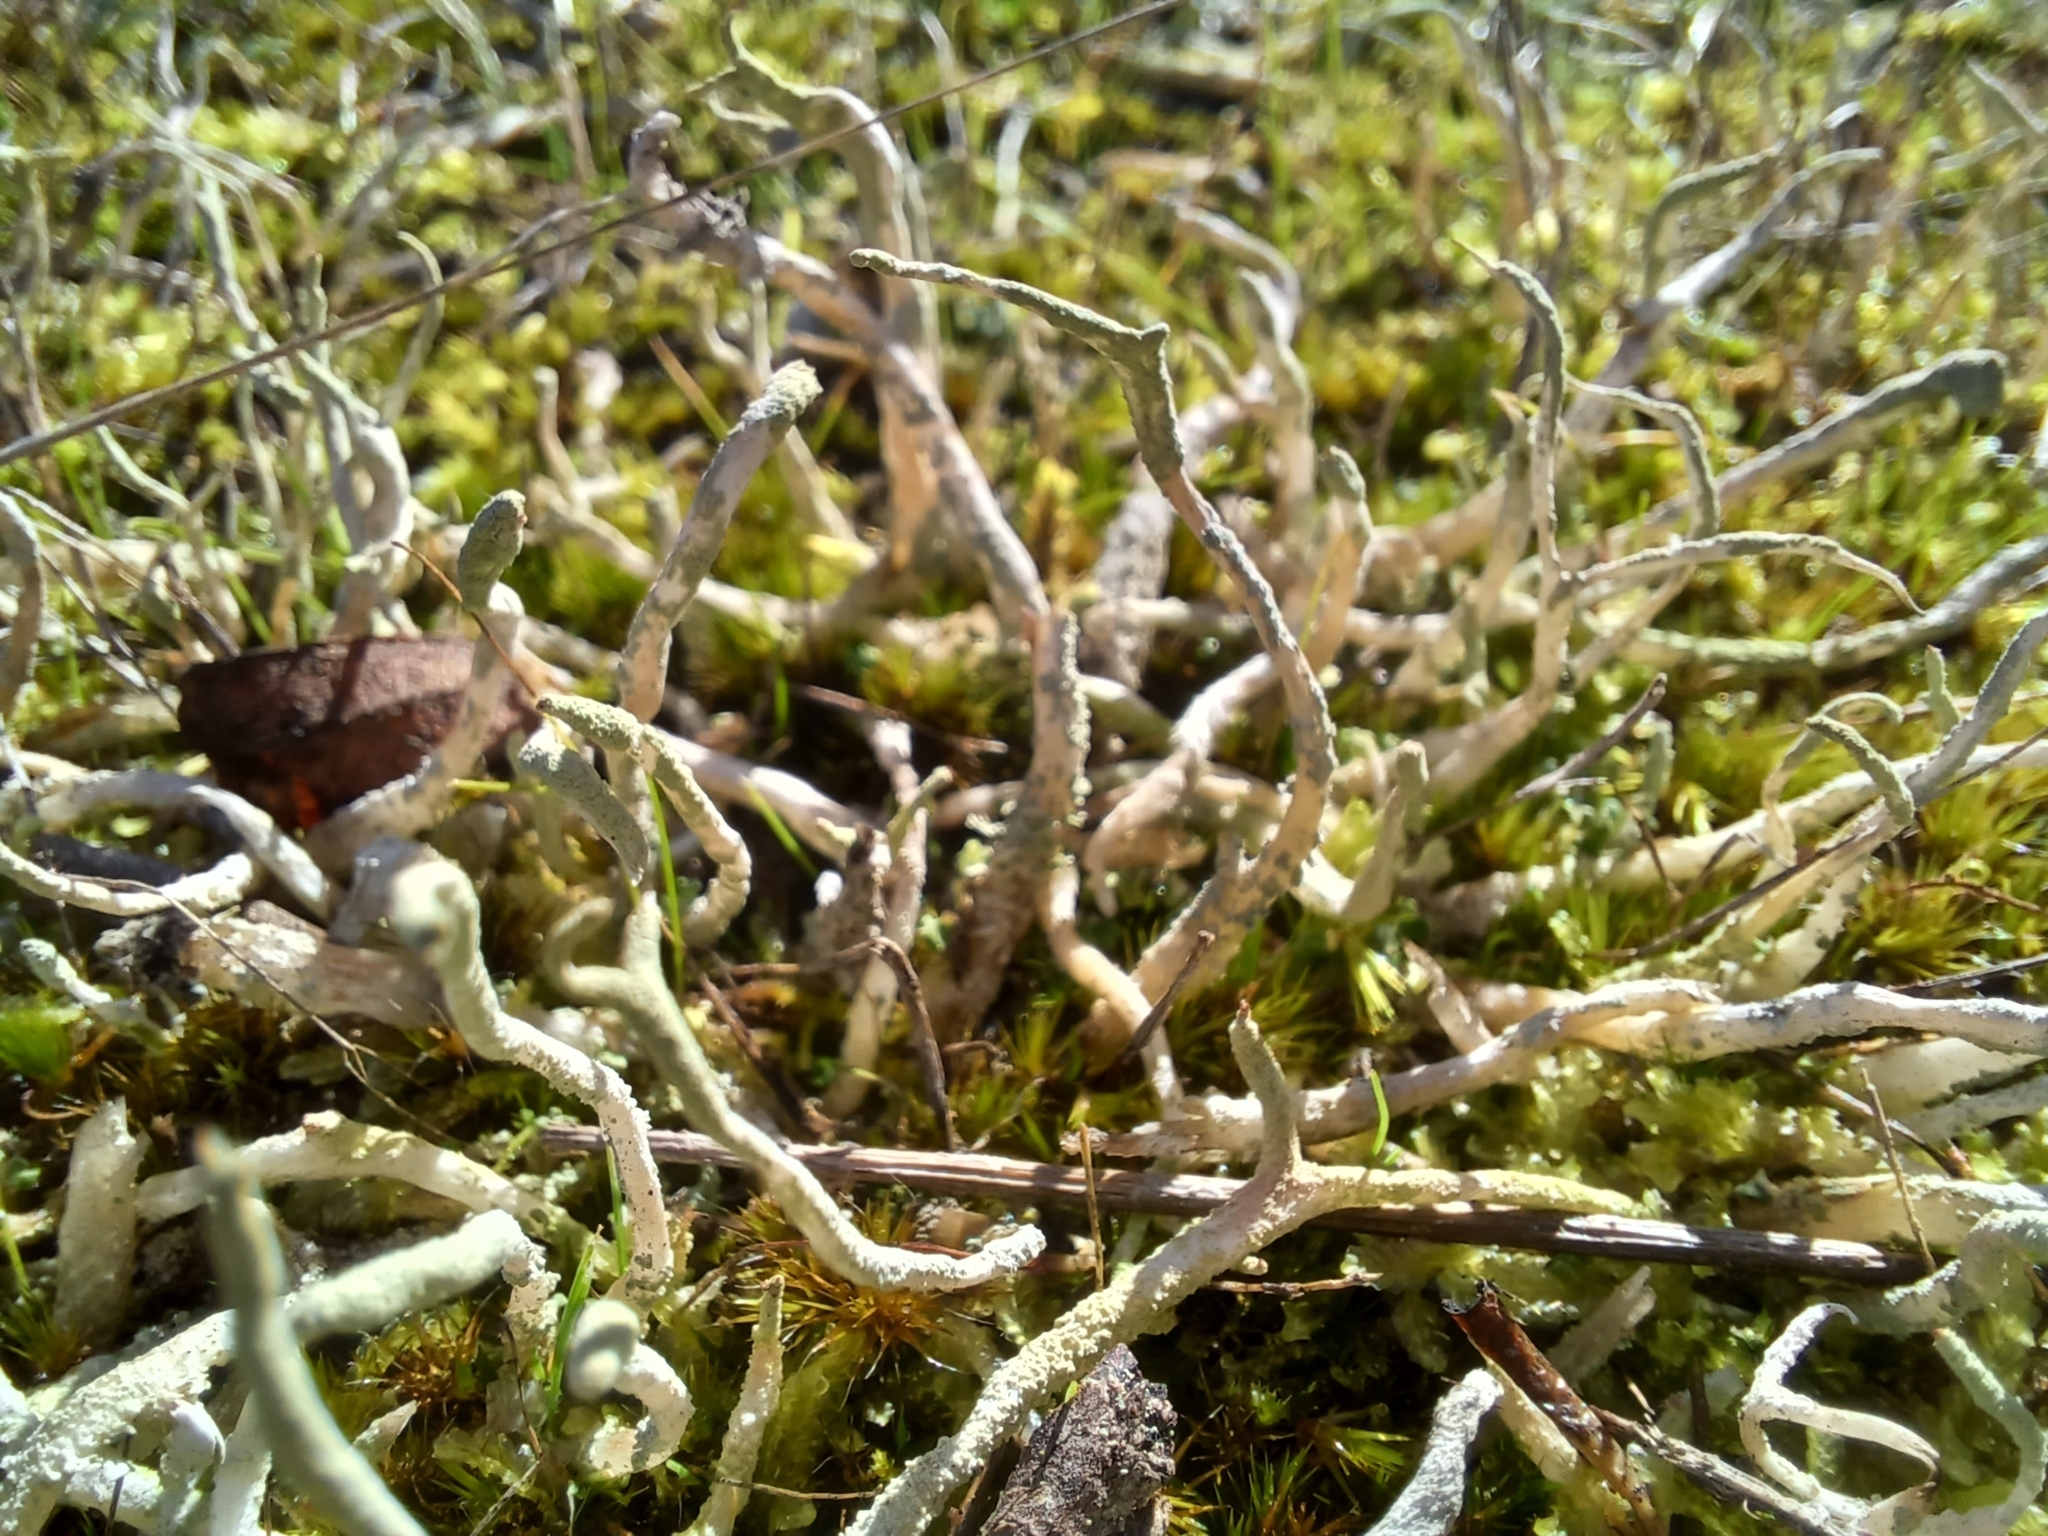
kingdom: Fungi
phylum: Ascomycota
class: Lecanoromycetes
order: Lecanorales
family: Cladoniaceae
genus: Cladonia
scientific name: Cladonia scabriuscula
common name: Mealy forked clad lichen
